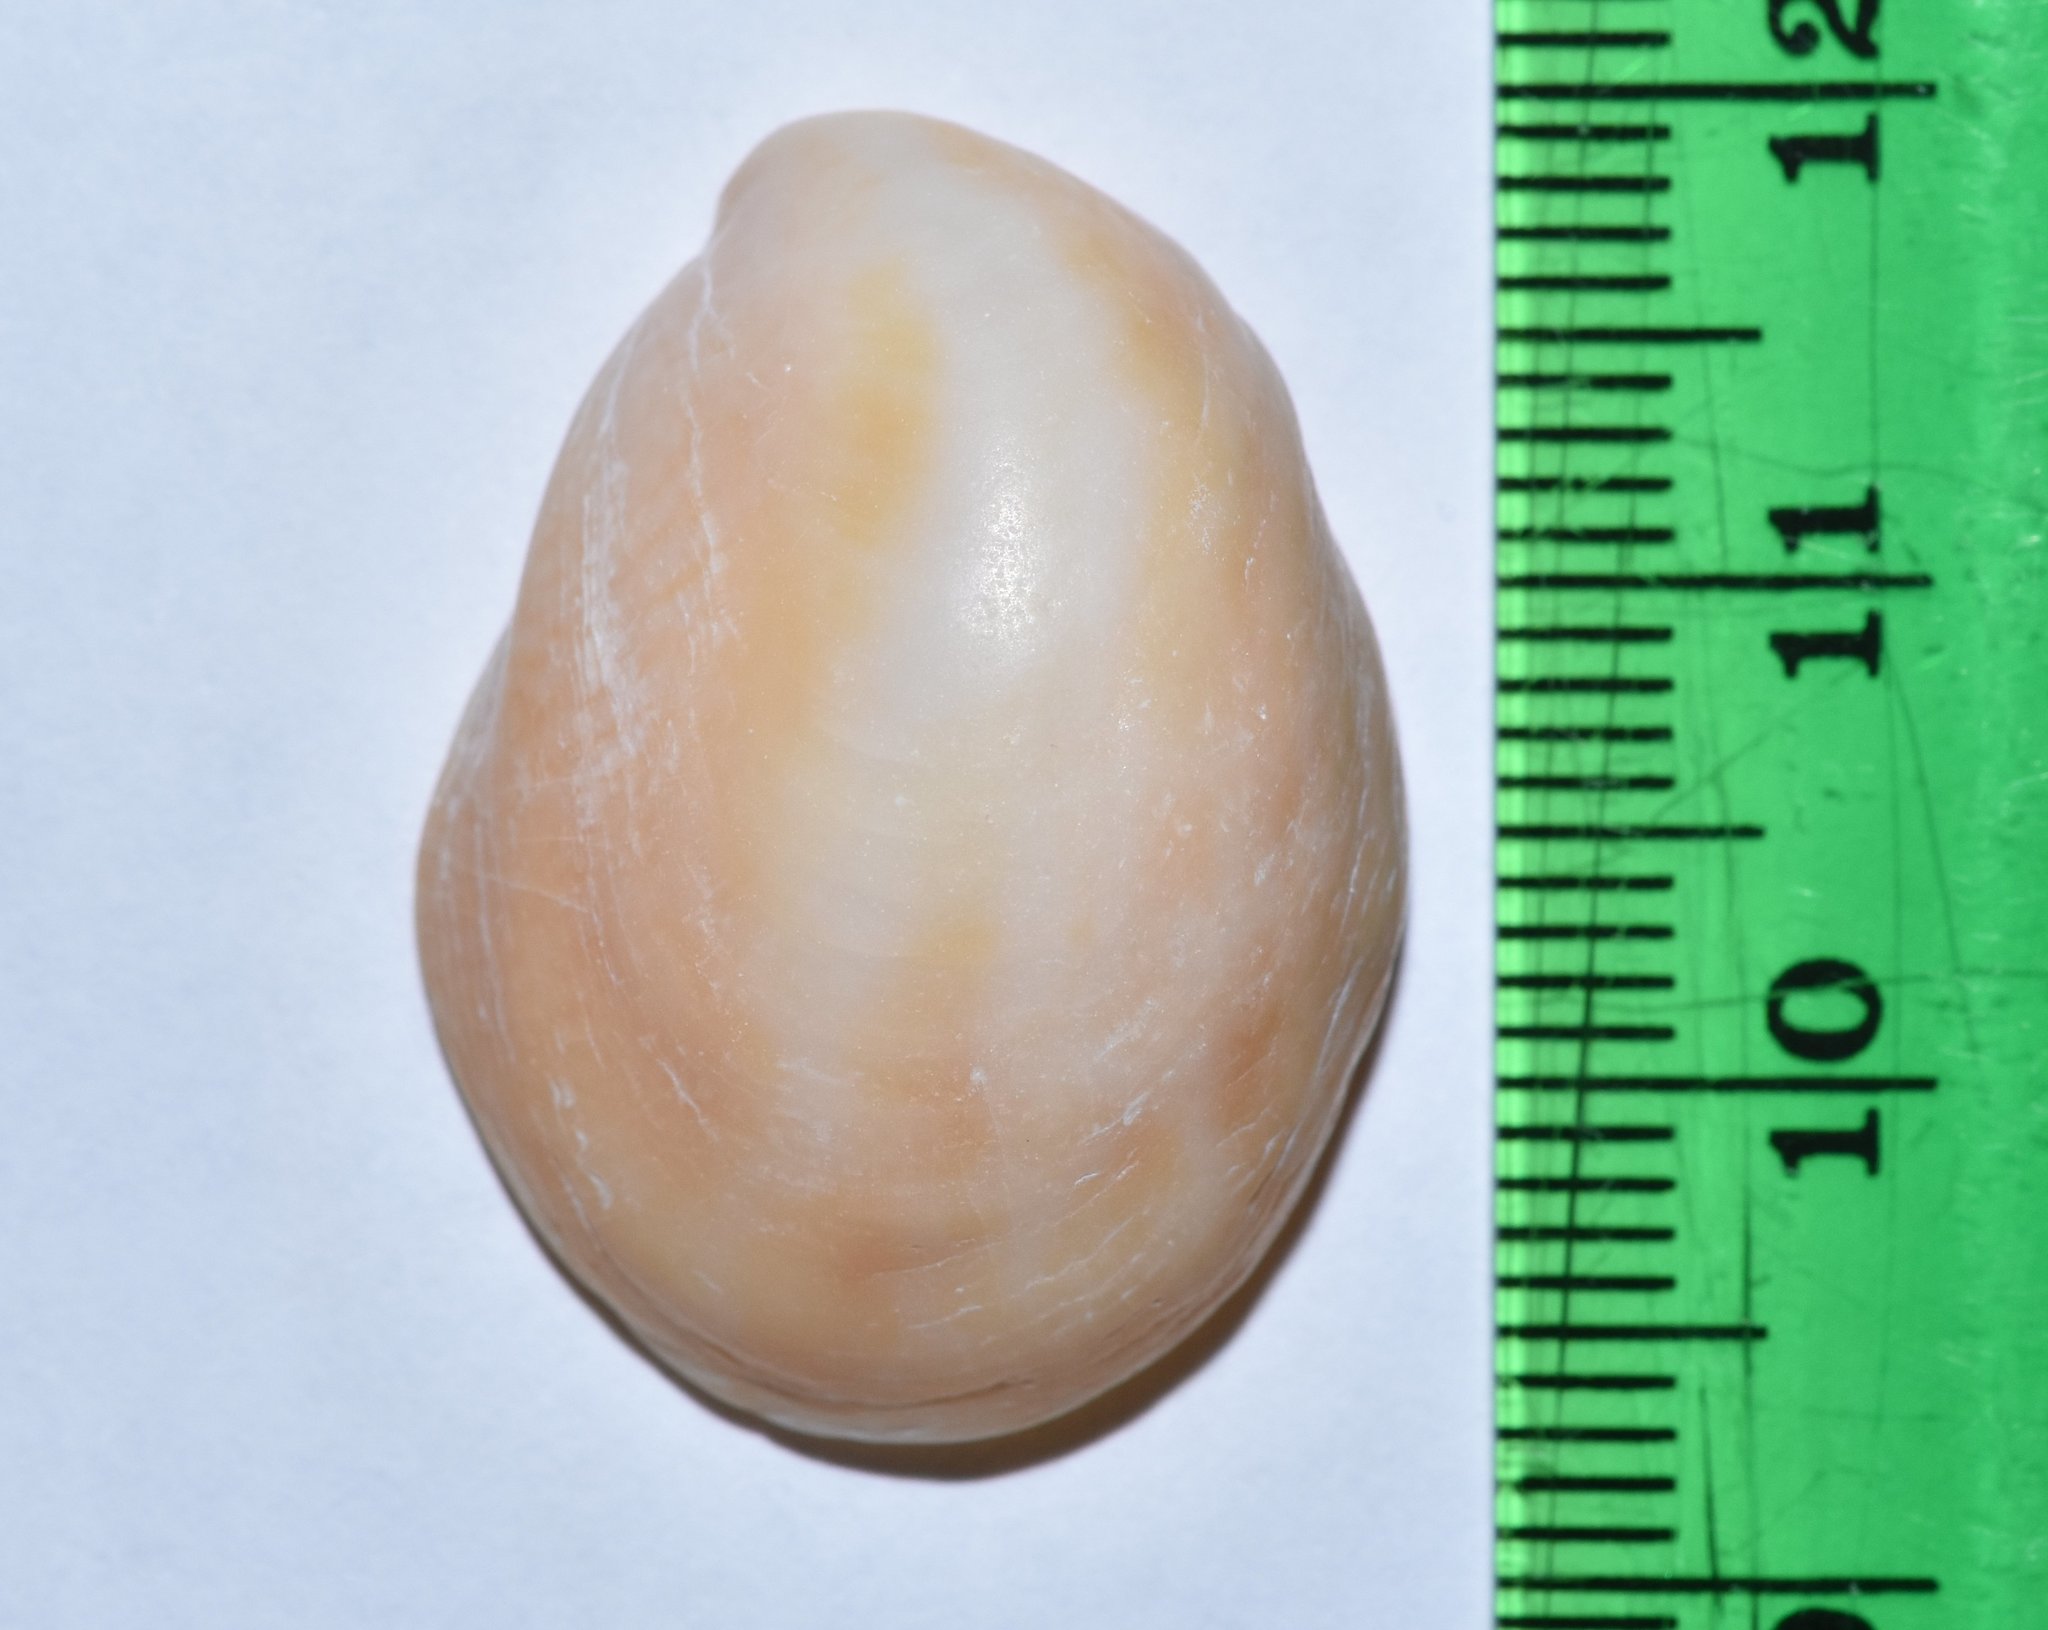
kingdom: Animalia
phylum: Mollusca
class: Gastropoda
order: Littorinimorpha
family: Calyptraeidae
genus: Crepidula
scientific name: Crepidula fornicata
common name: Slipper limpet
